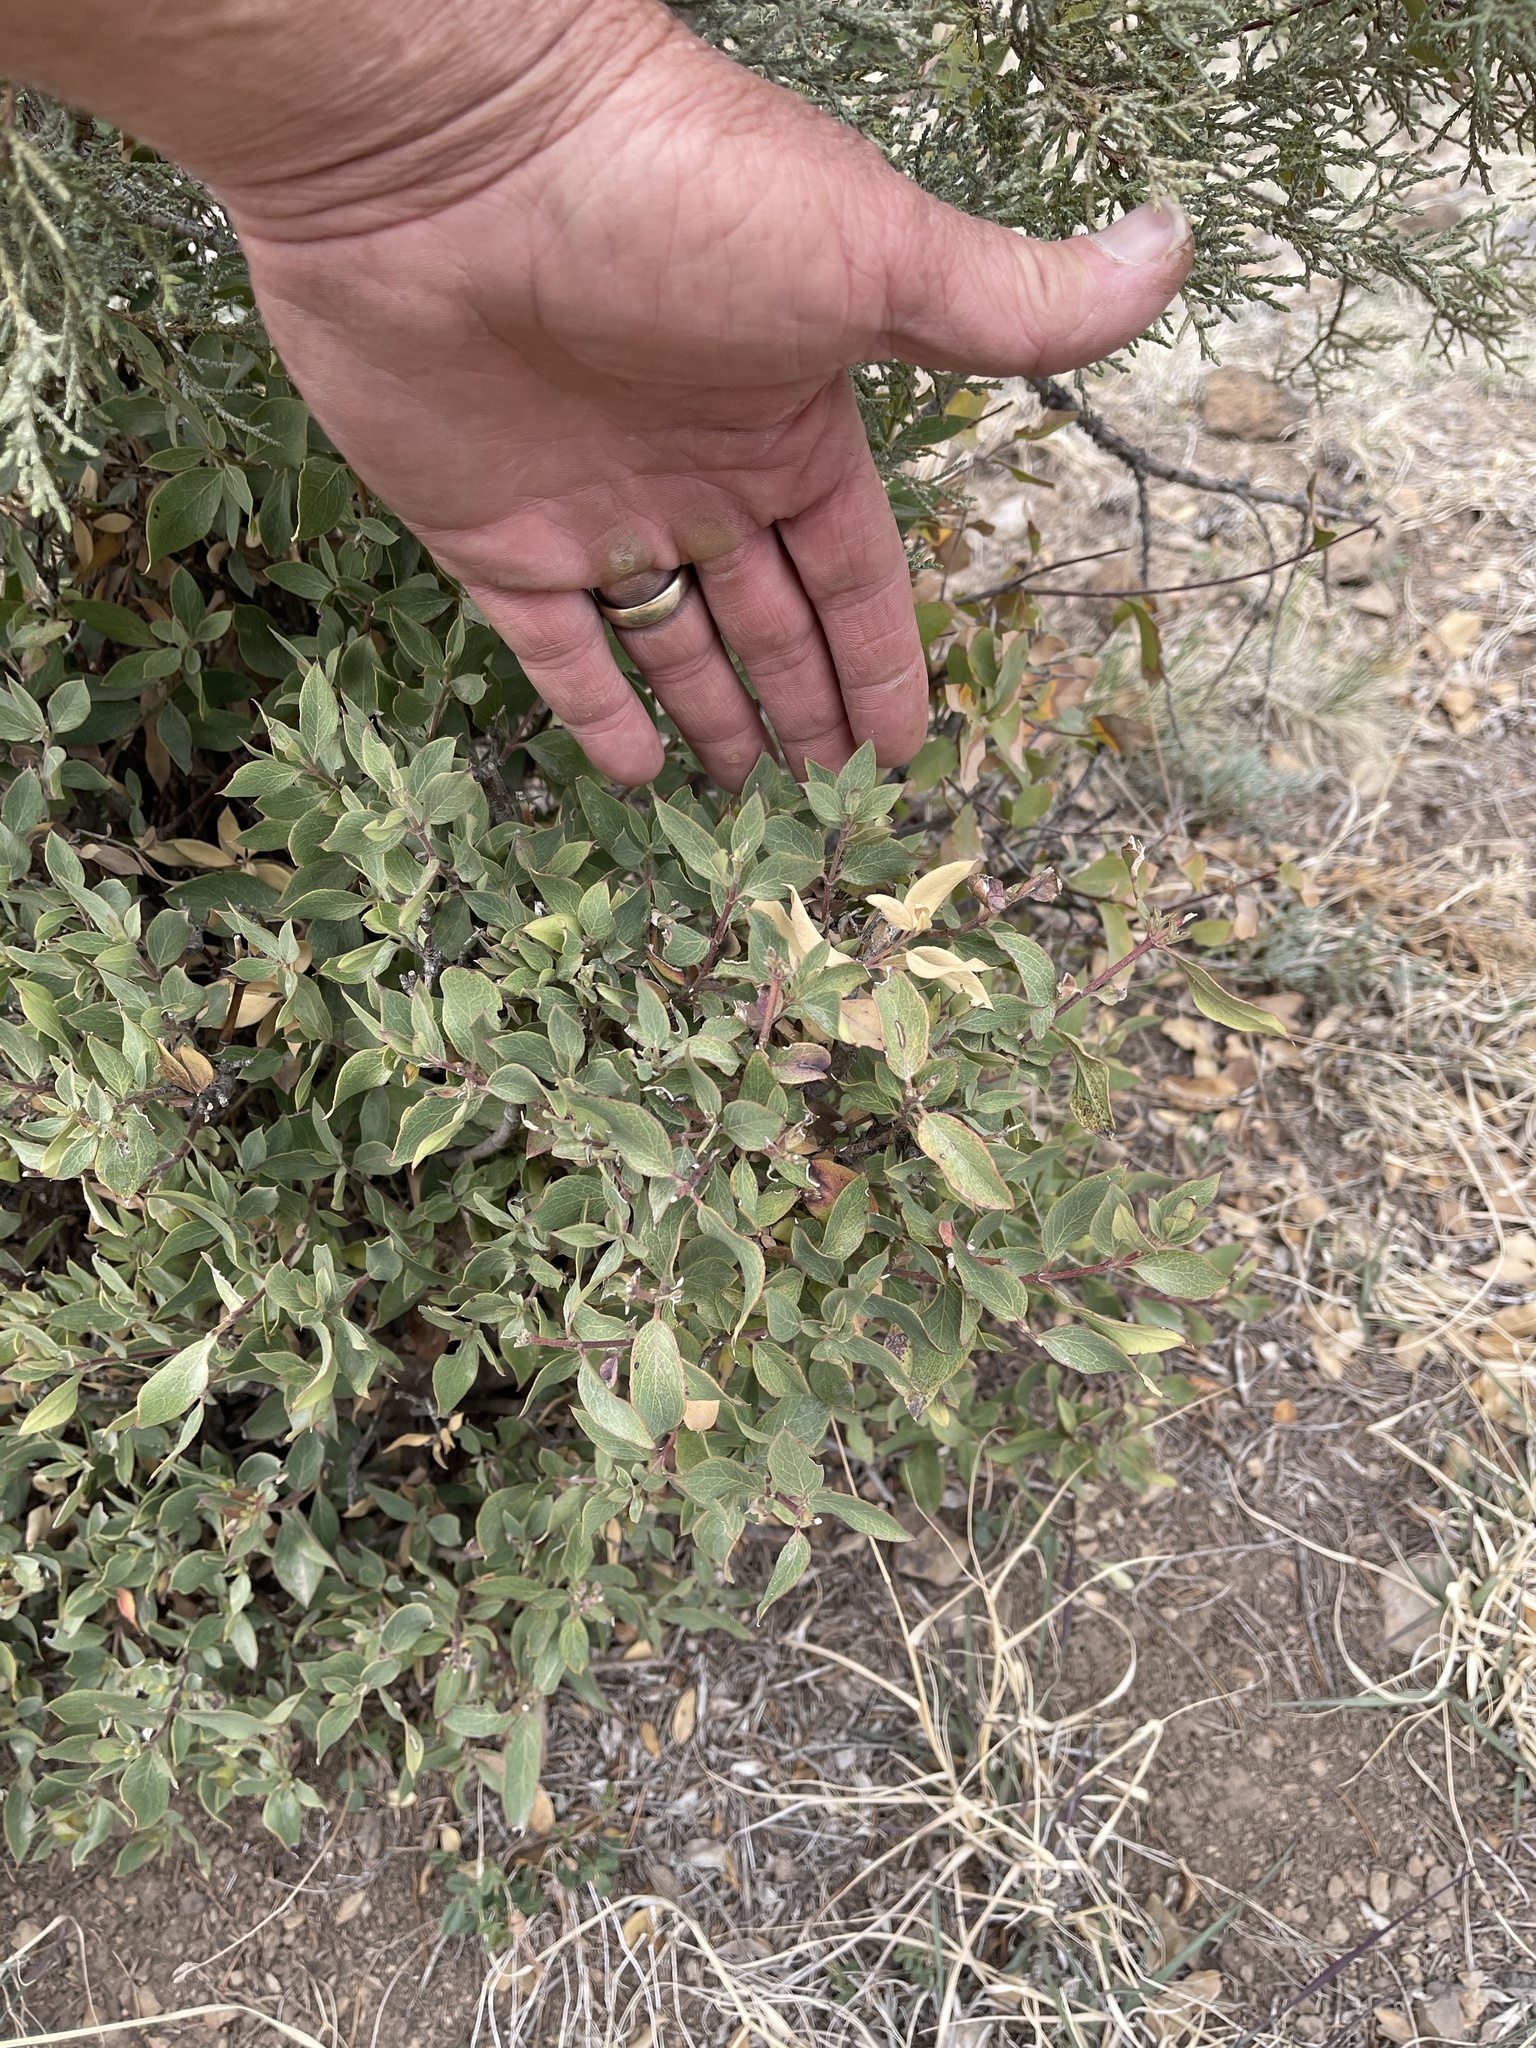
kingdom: Plantae
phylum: Tracheophyta
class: Magnoliopsida
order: Garryales
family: Garryaceae
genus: Garrya
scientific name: Garrya wrightii
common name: Wright's silktassel
